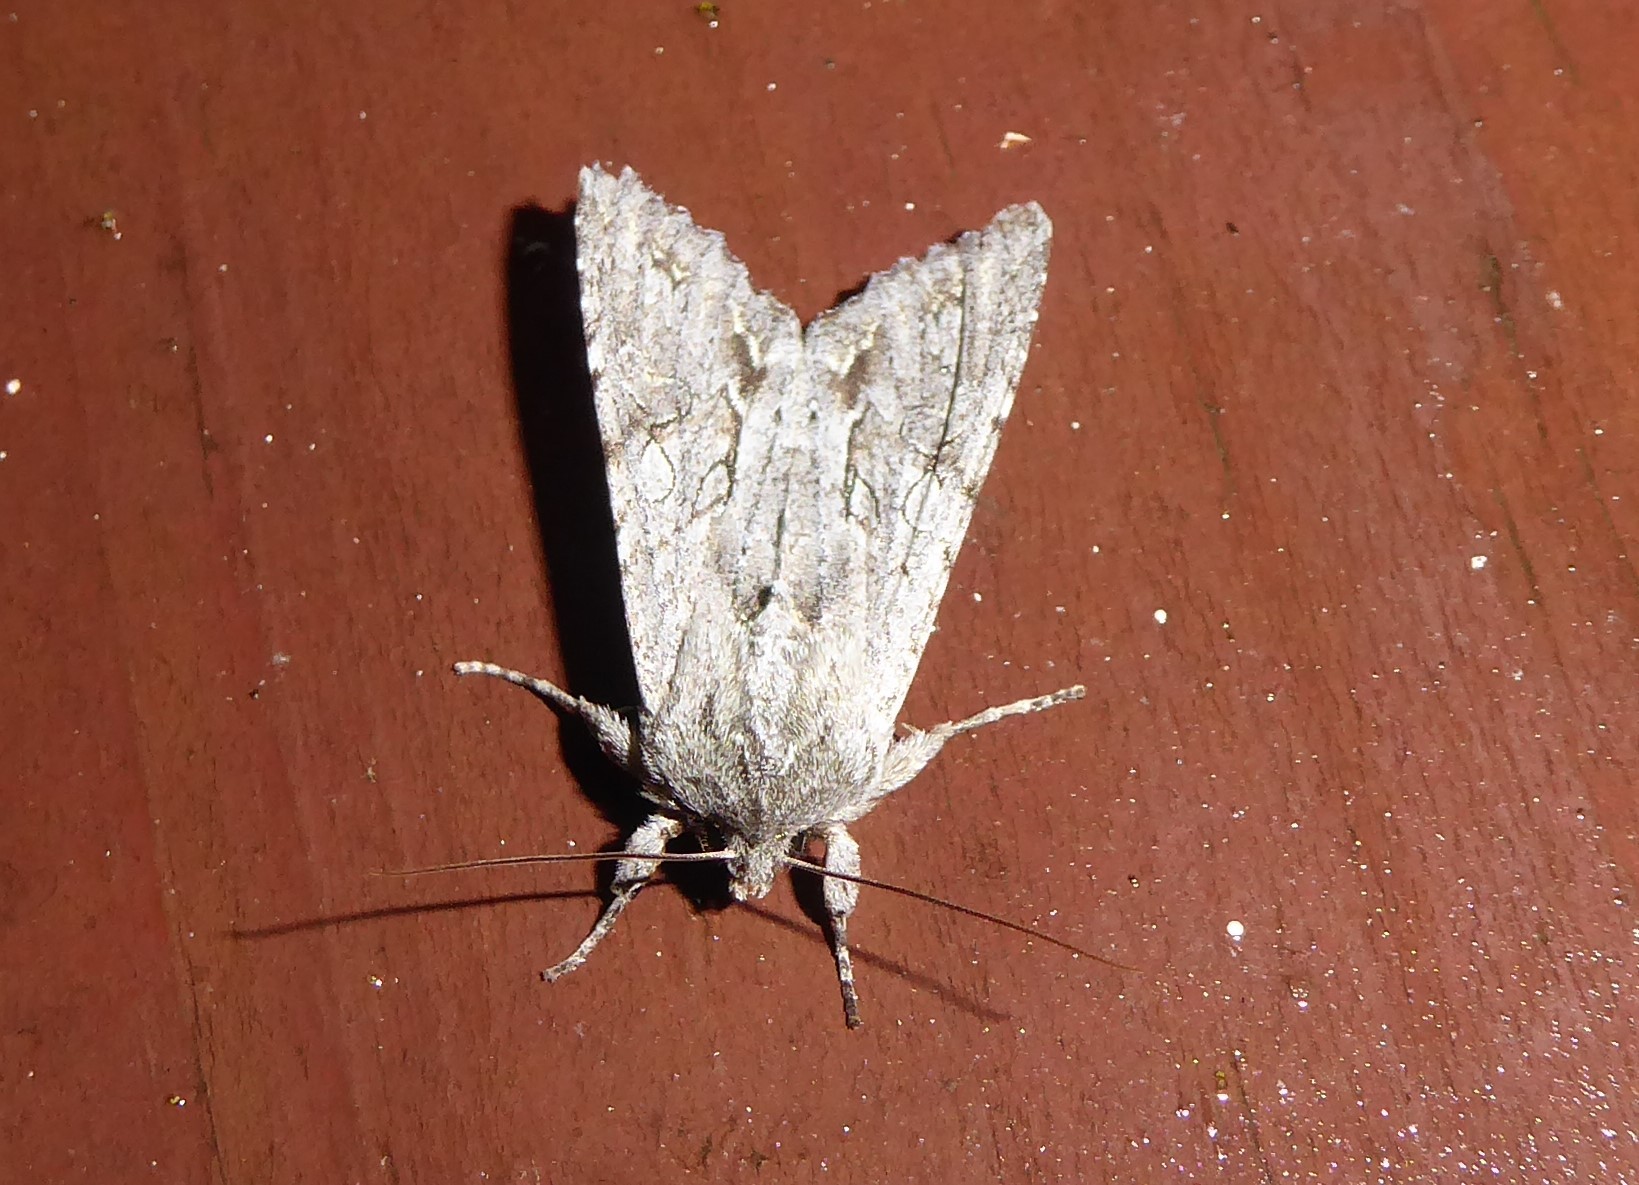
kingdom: Animalia
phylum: Arthropoda
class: Insecta
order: Lepidoptera
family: Noctuidae
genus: Ichneutica
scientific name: Ichneutica
